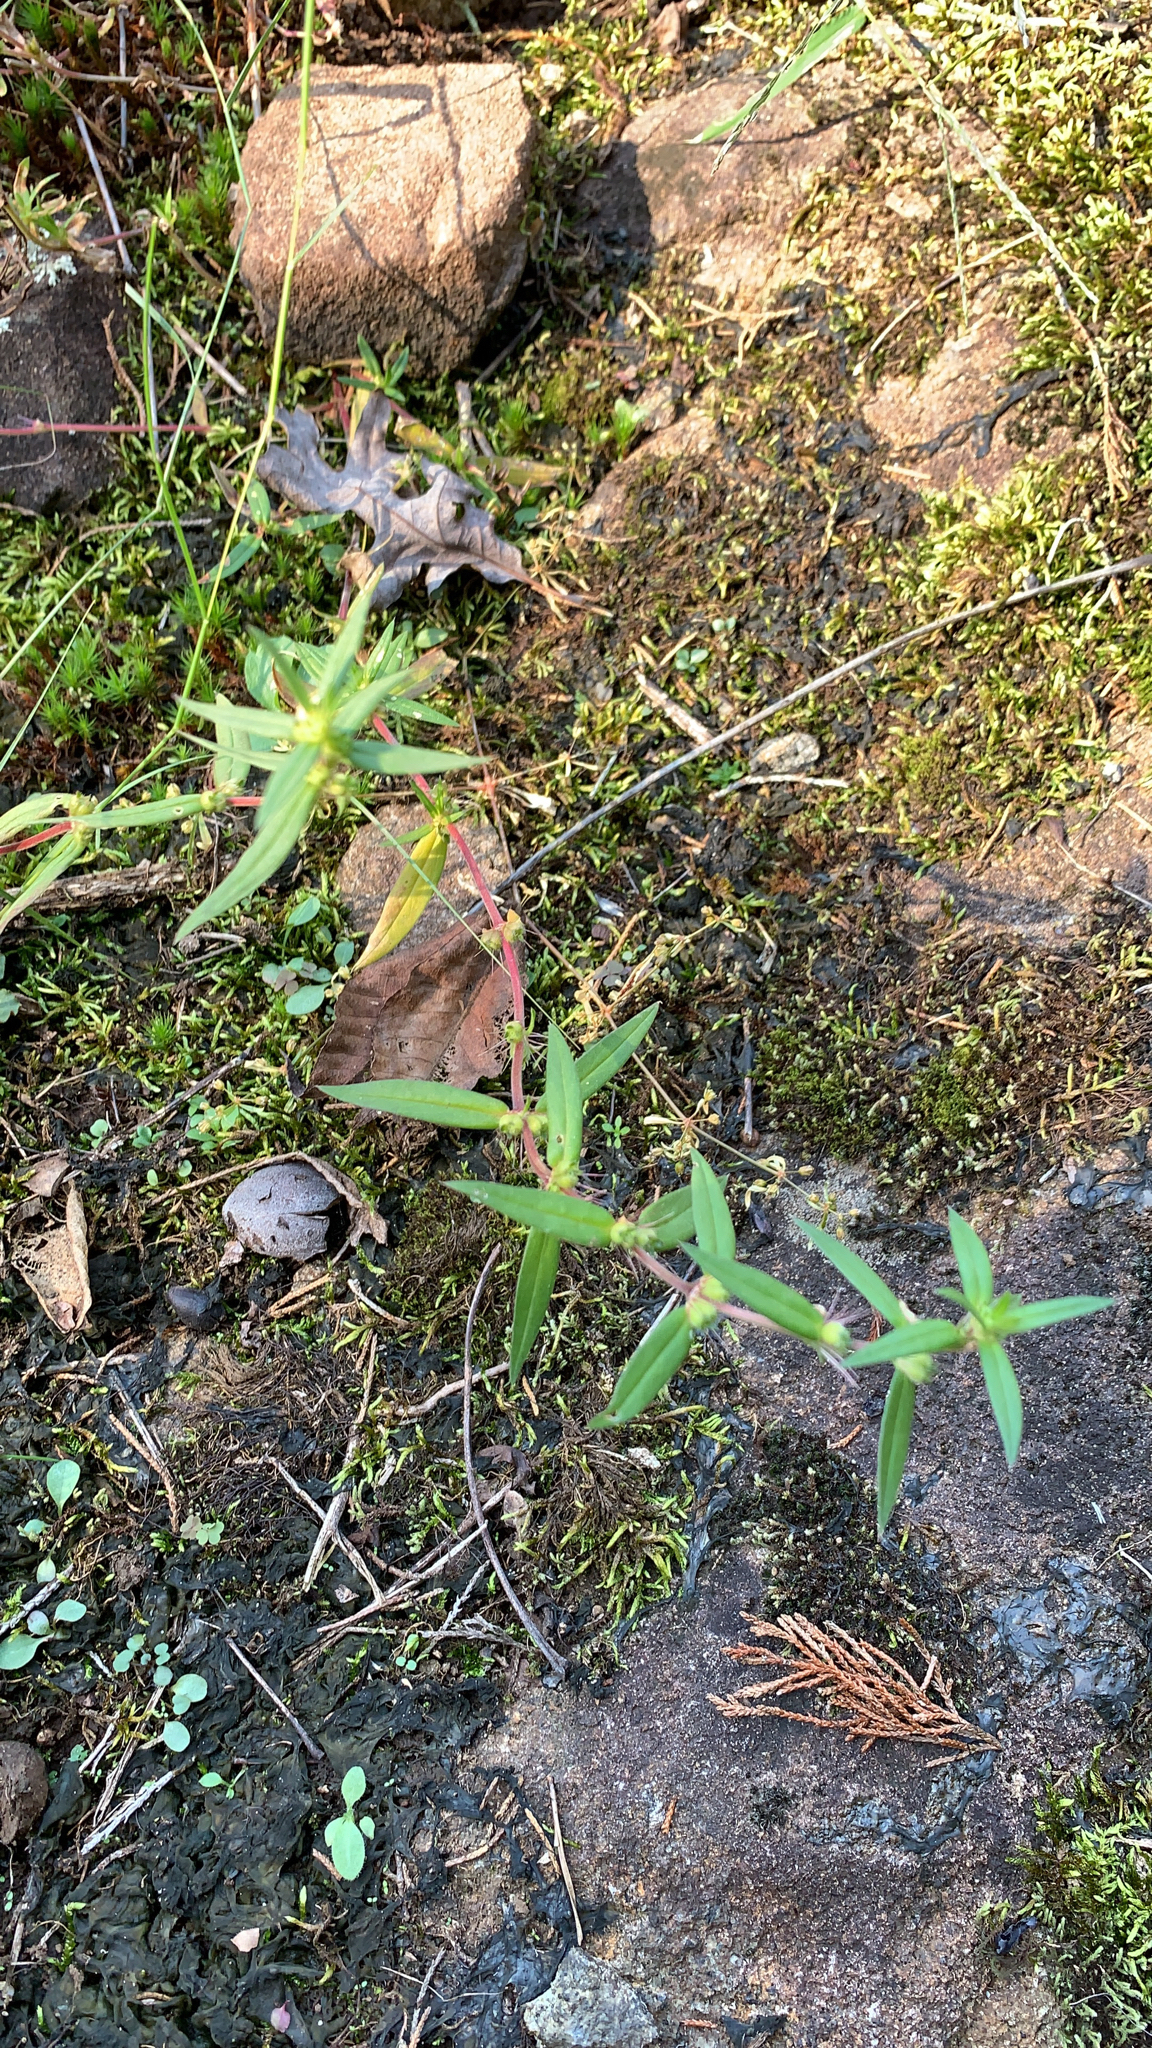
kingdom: Plantae
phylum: Tracheophyta
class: Magnoliopsida
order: Gentianales
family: Rubiaceae
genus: Hexasepalum
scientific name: Hexasepalum teres
